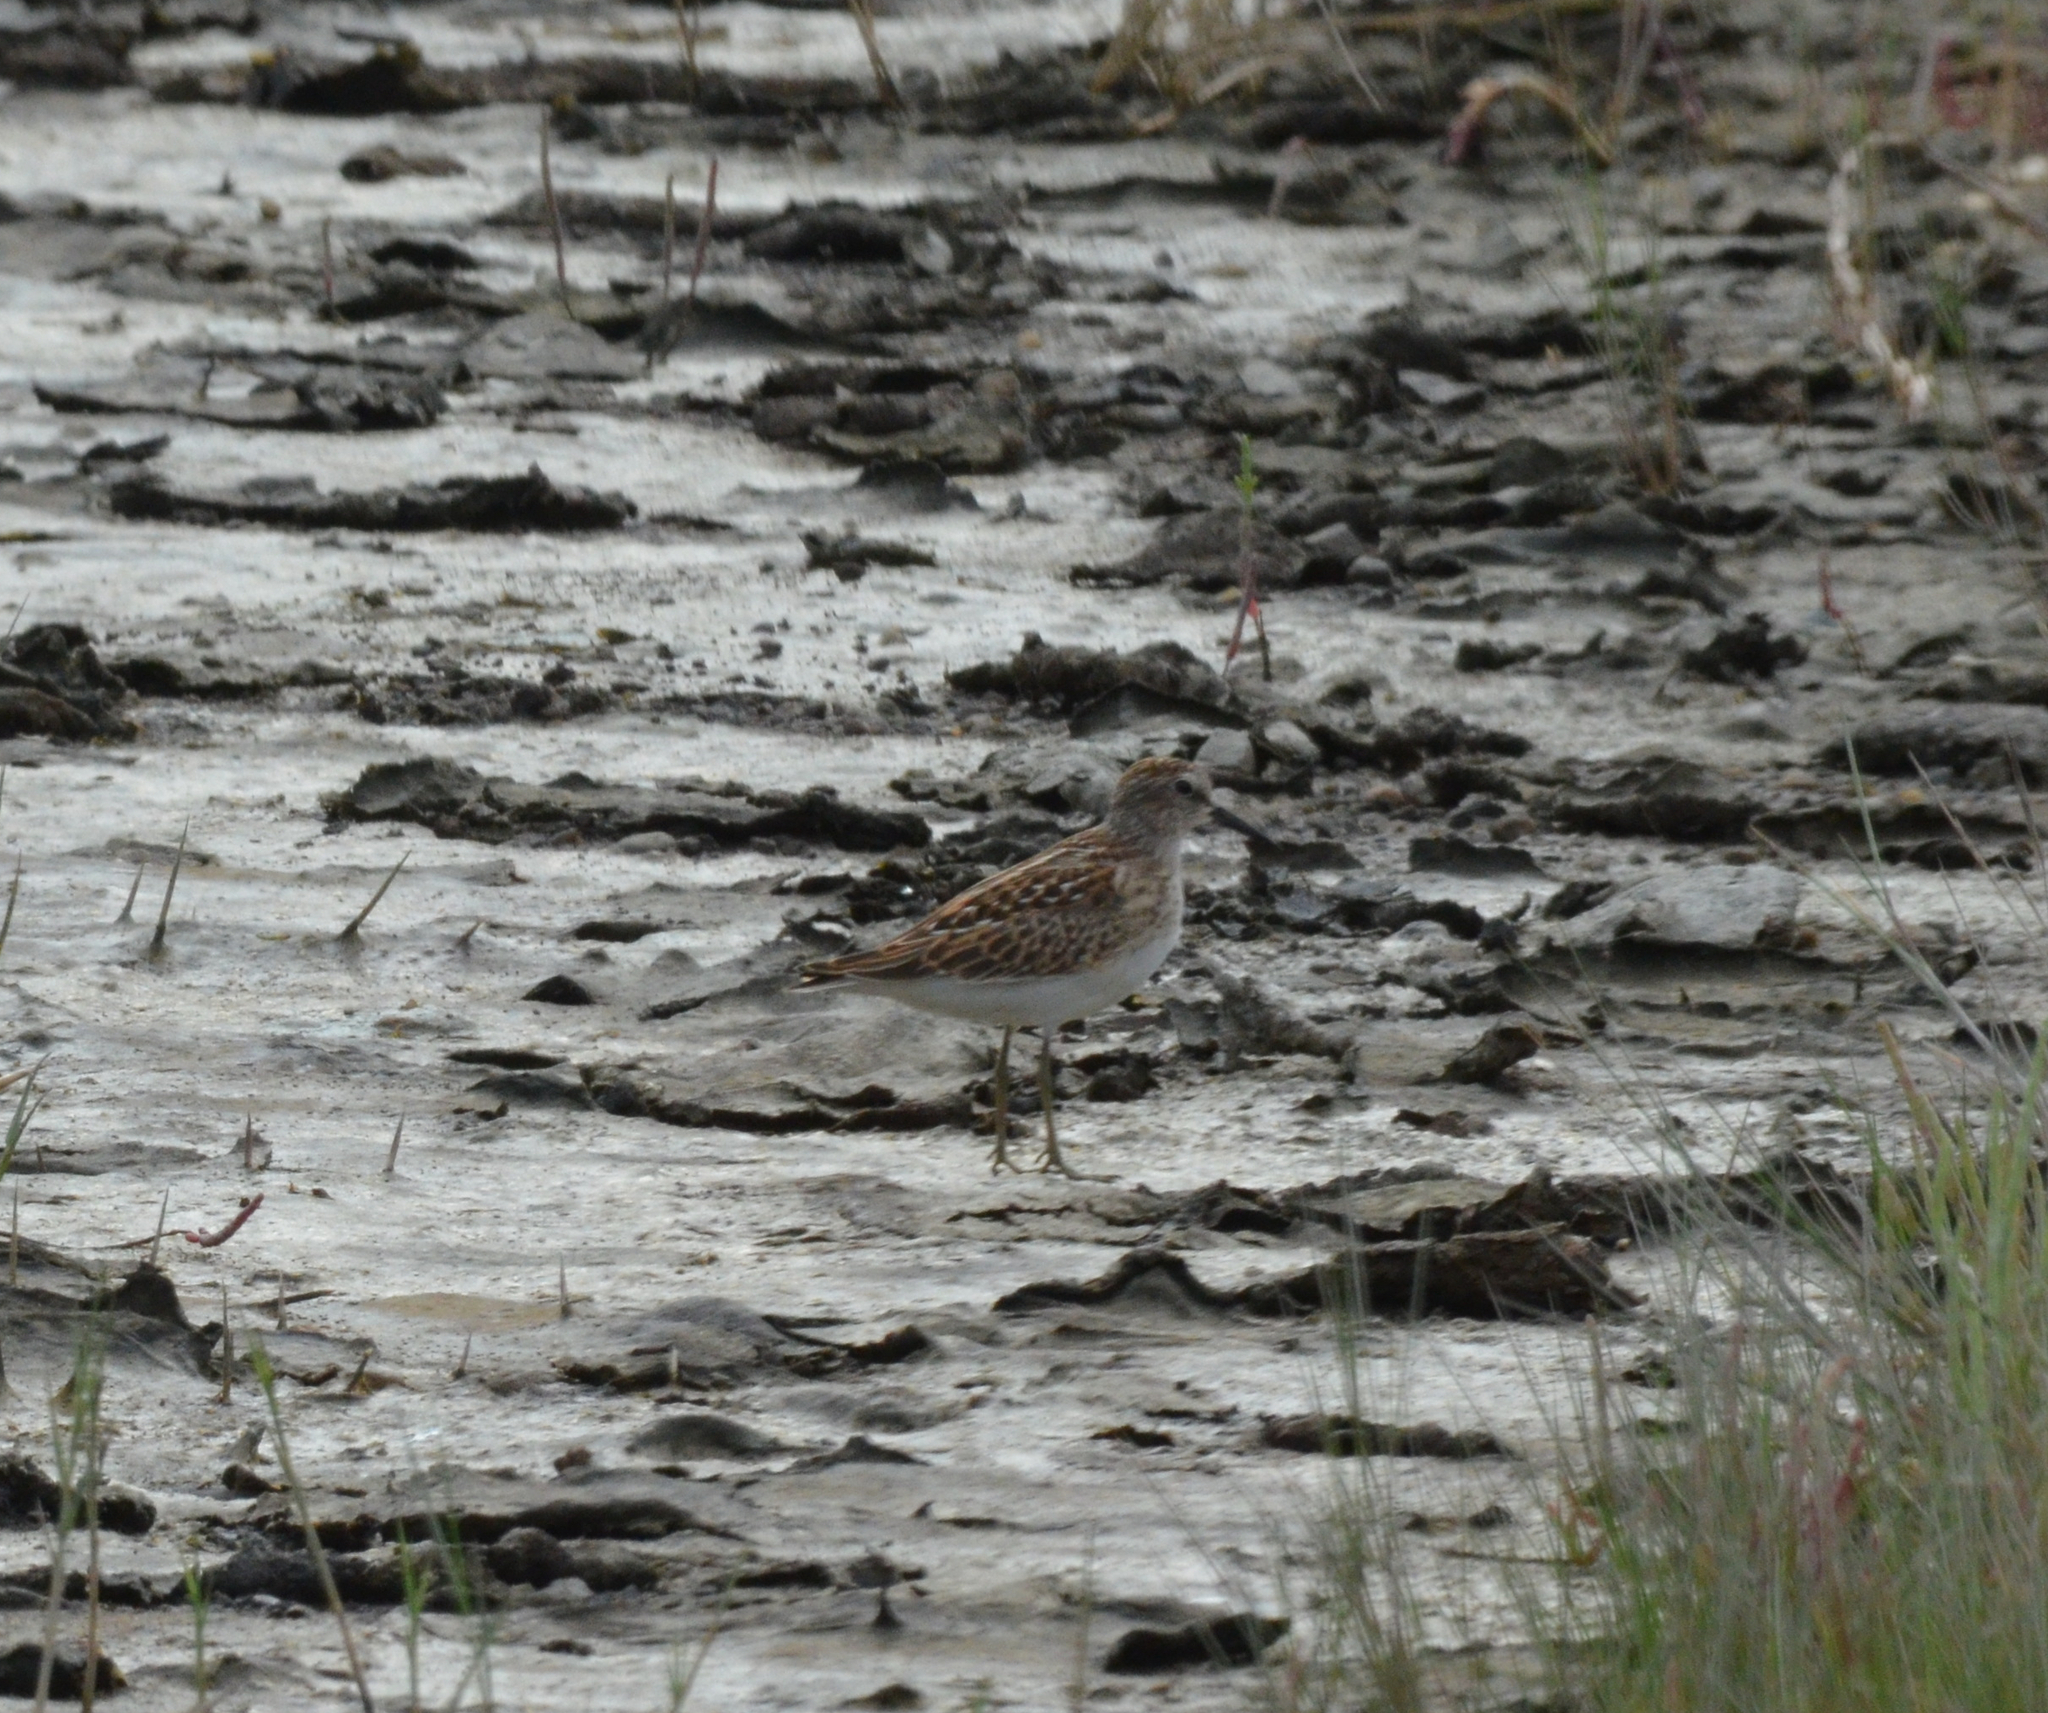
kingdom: Animalia
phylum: Chordata
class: Aves
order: Charadriiformes
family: Scolopacidae
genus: Calidris
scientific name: Calidris minutilla
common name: Least sandpiper
